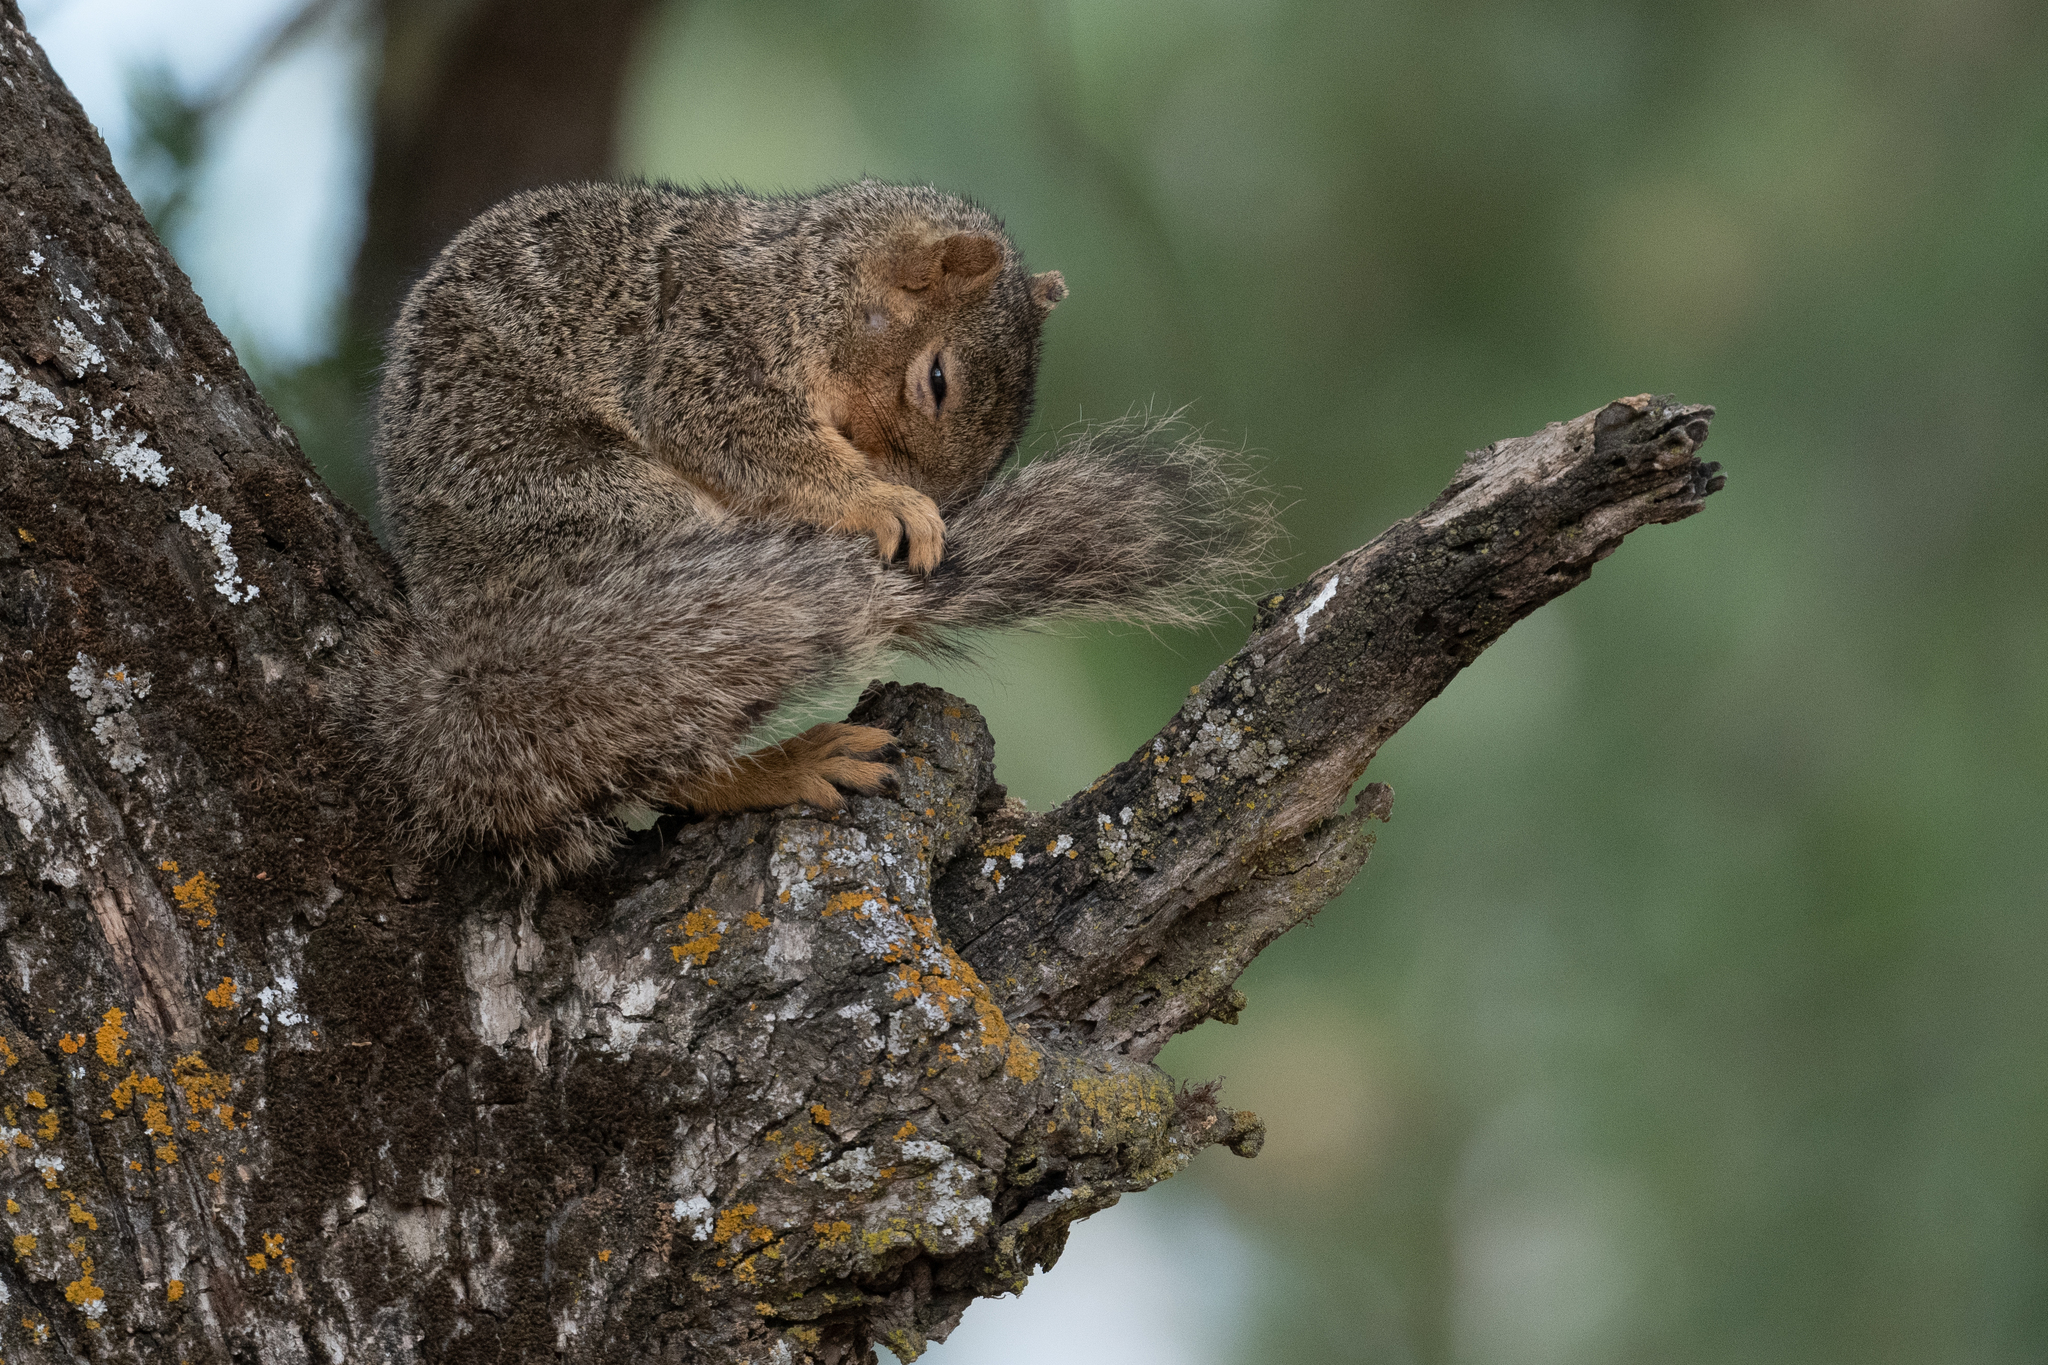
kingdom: Animalia
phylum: Chordata
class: Mammalia
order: Rodentia
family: Sciuridae
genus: Sciurus
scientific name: Sciurus niger
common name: Fox squirrel
